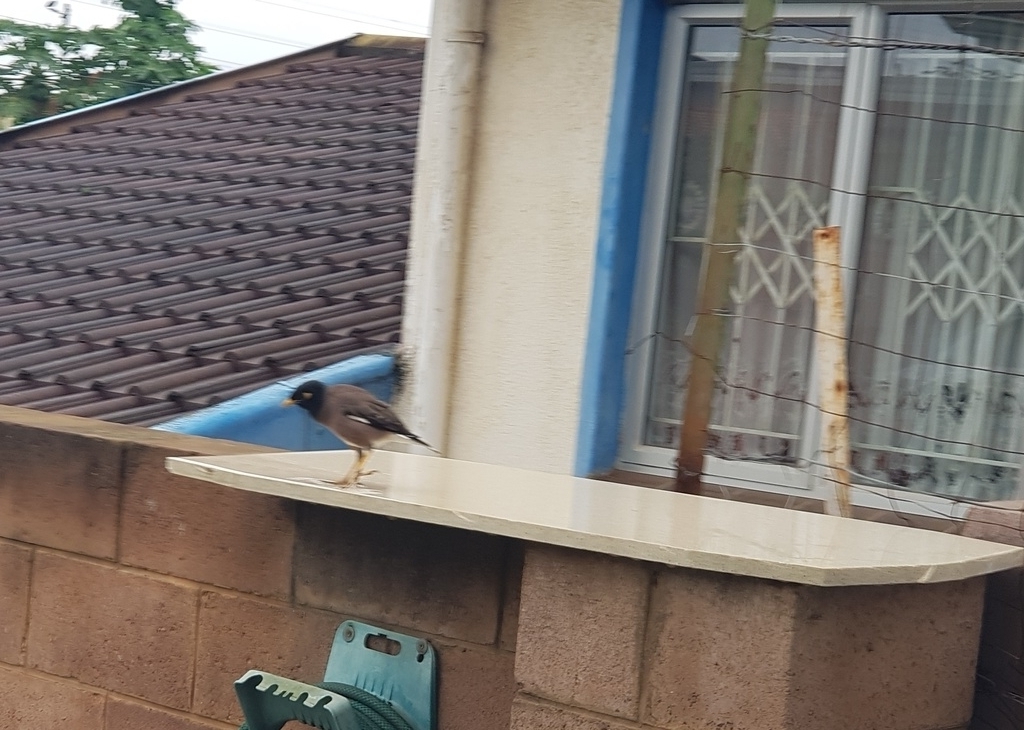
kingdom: Animalia
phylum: Chordata
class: Aves
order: Passeriformes
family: Sturnidae
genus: Acridotheres
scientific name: Acridotheres tristis
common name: Common myna
